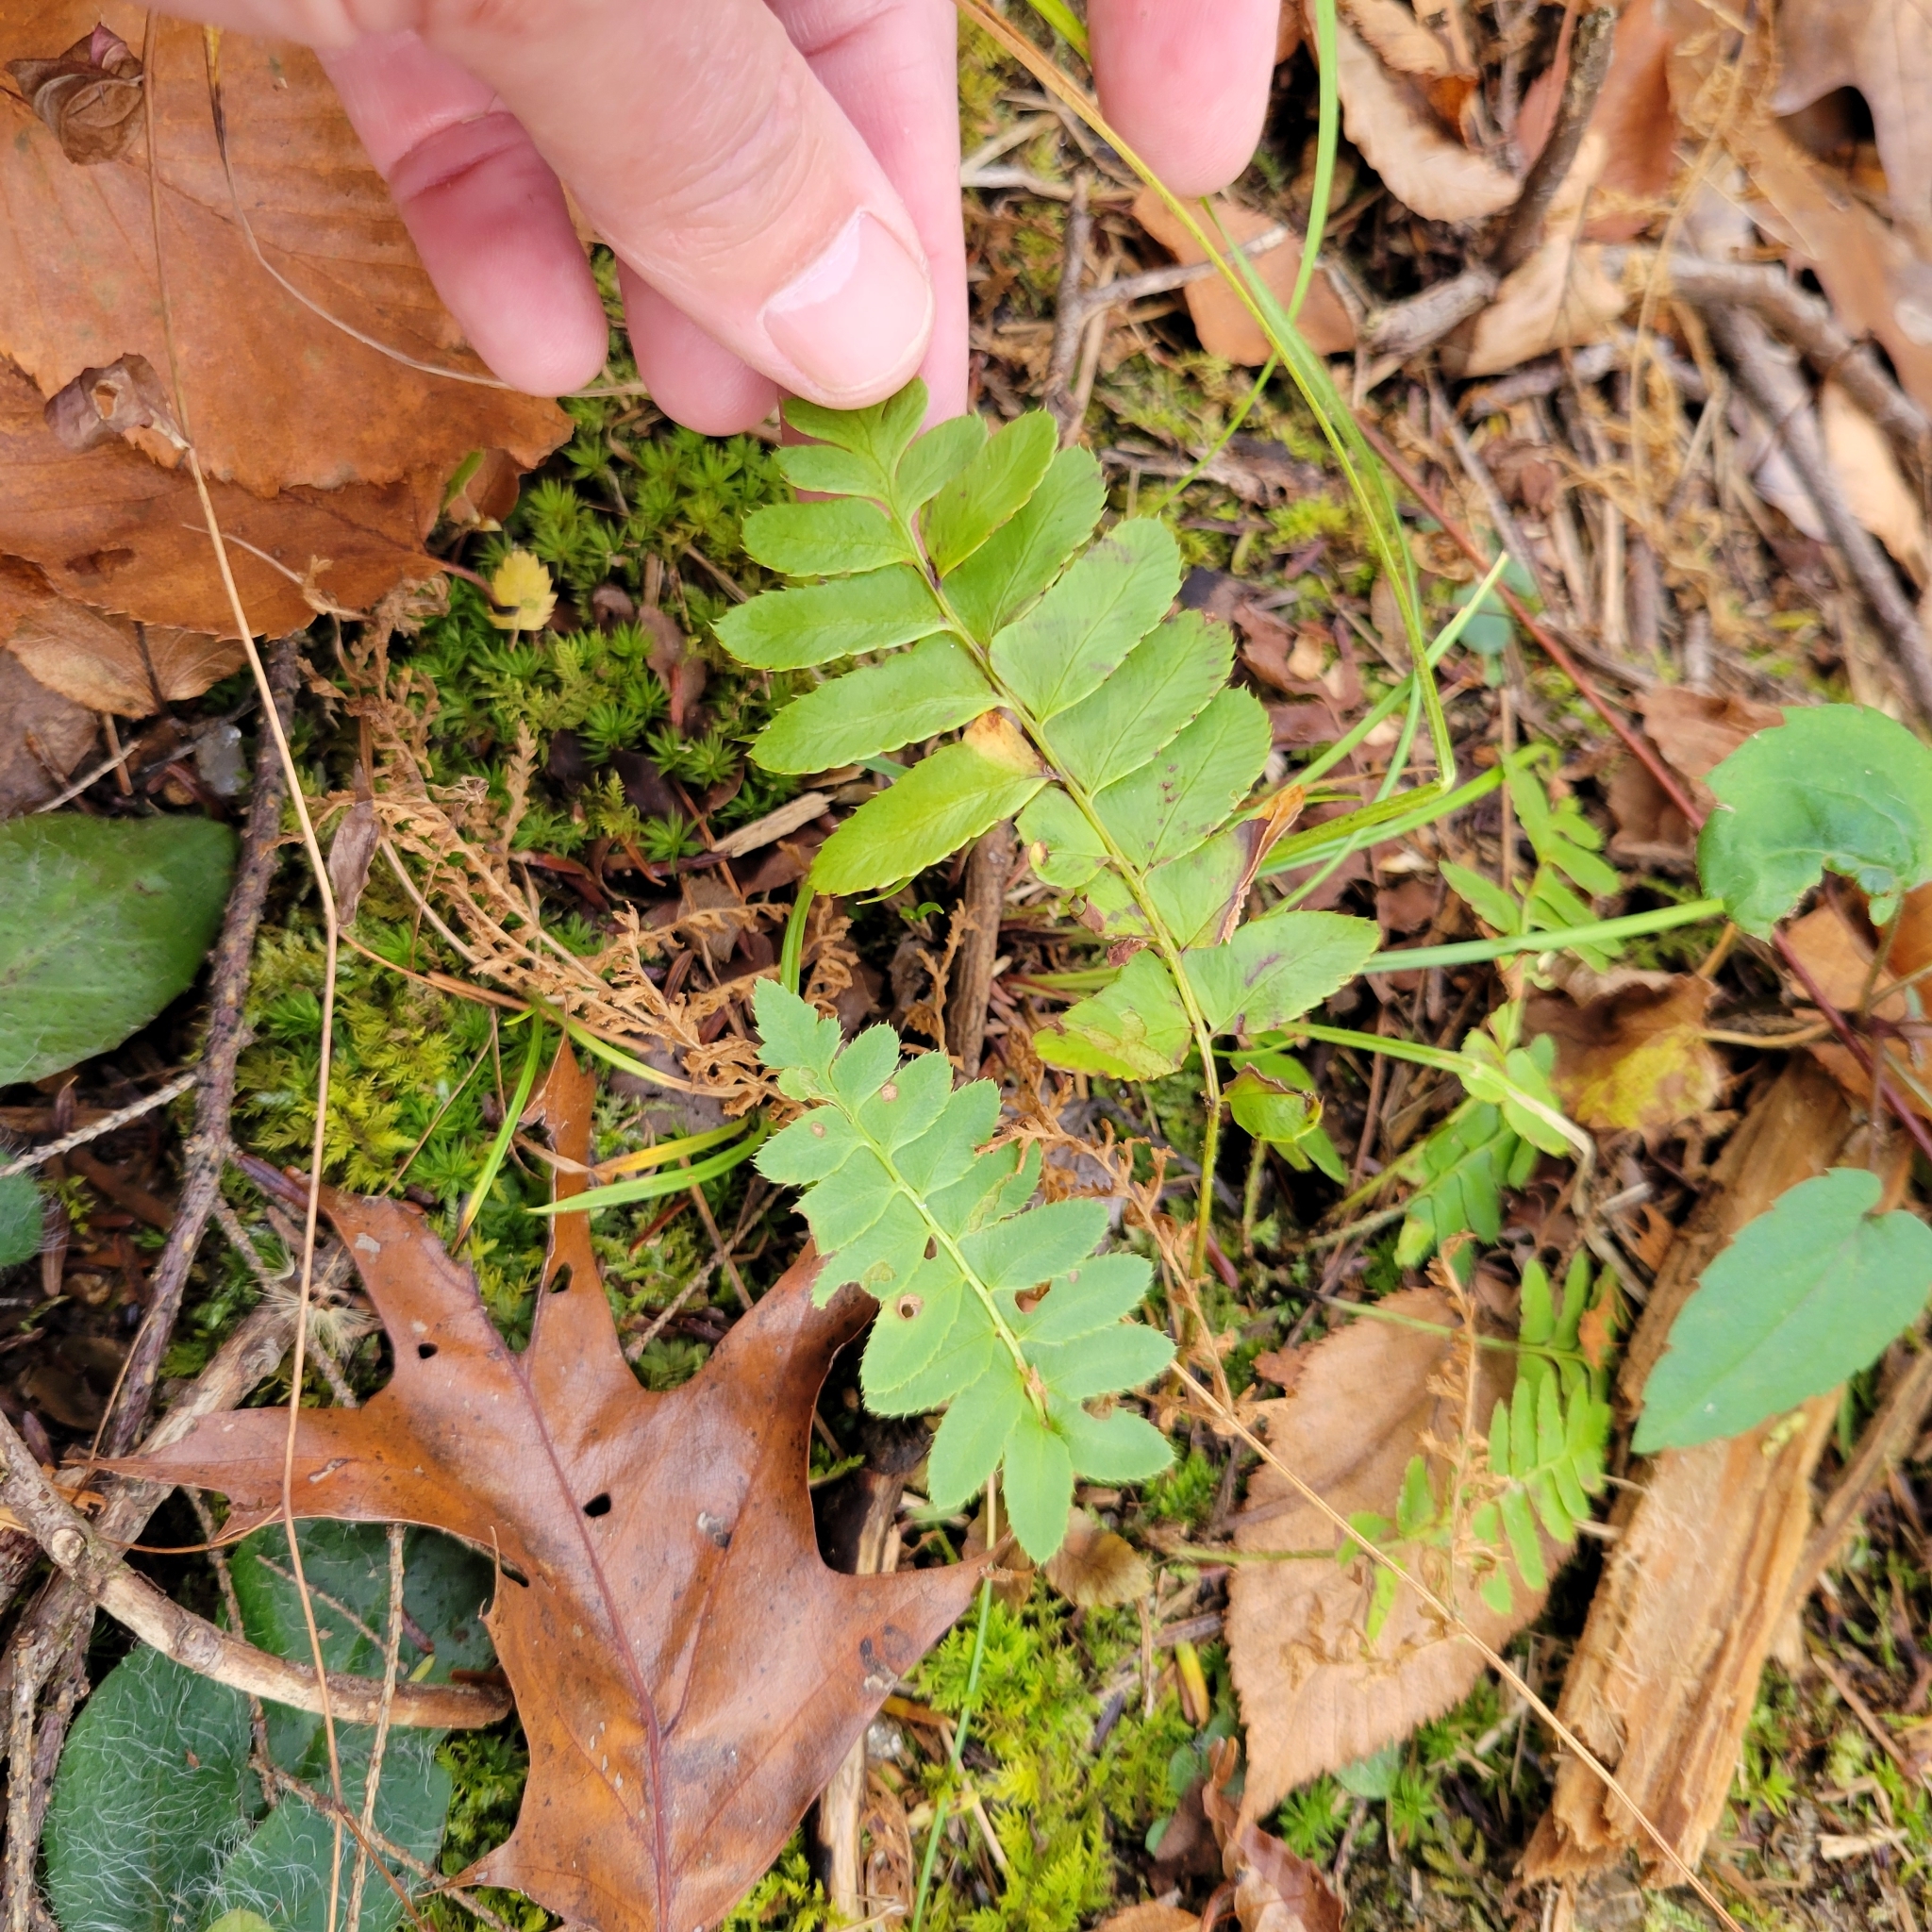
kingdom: Plantae
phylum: Tracheophyta
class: Polypodiopsida
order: Polypodiales
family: Dryopteridaceae
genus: Polystichum
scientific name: Polystichum acrostichoides
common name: Christmas fern
